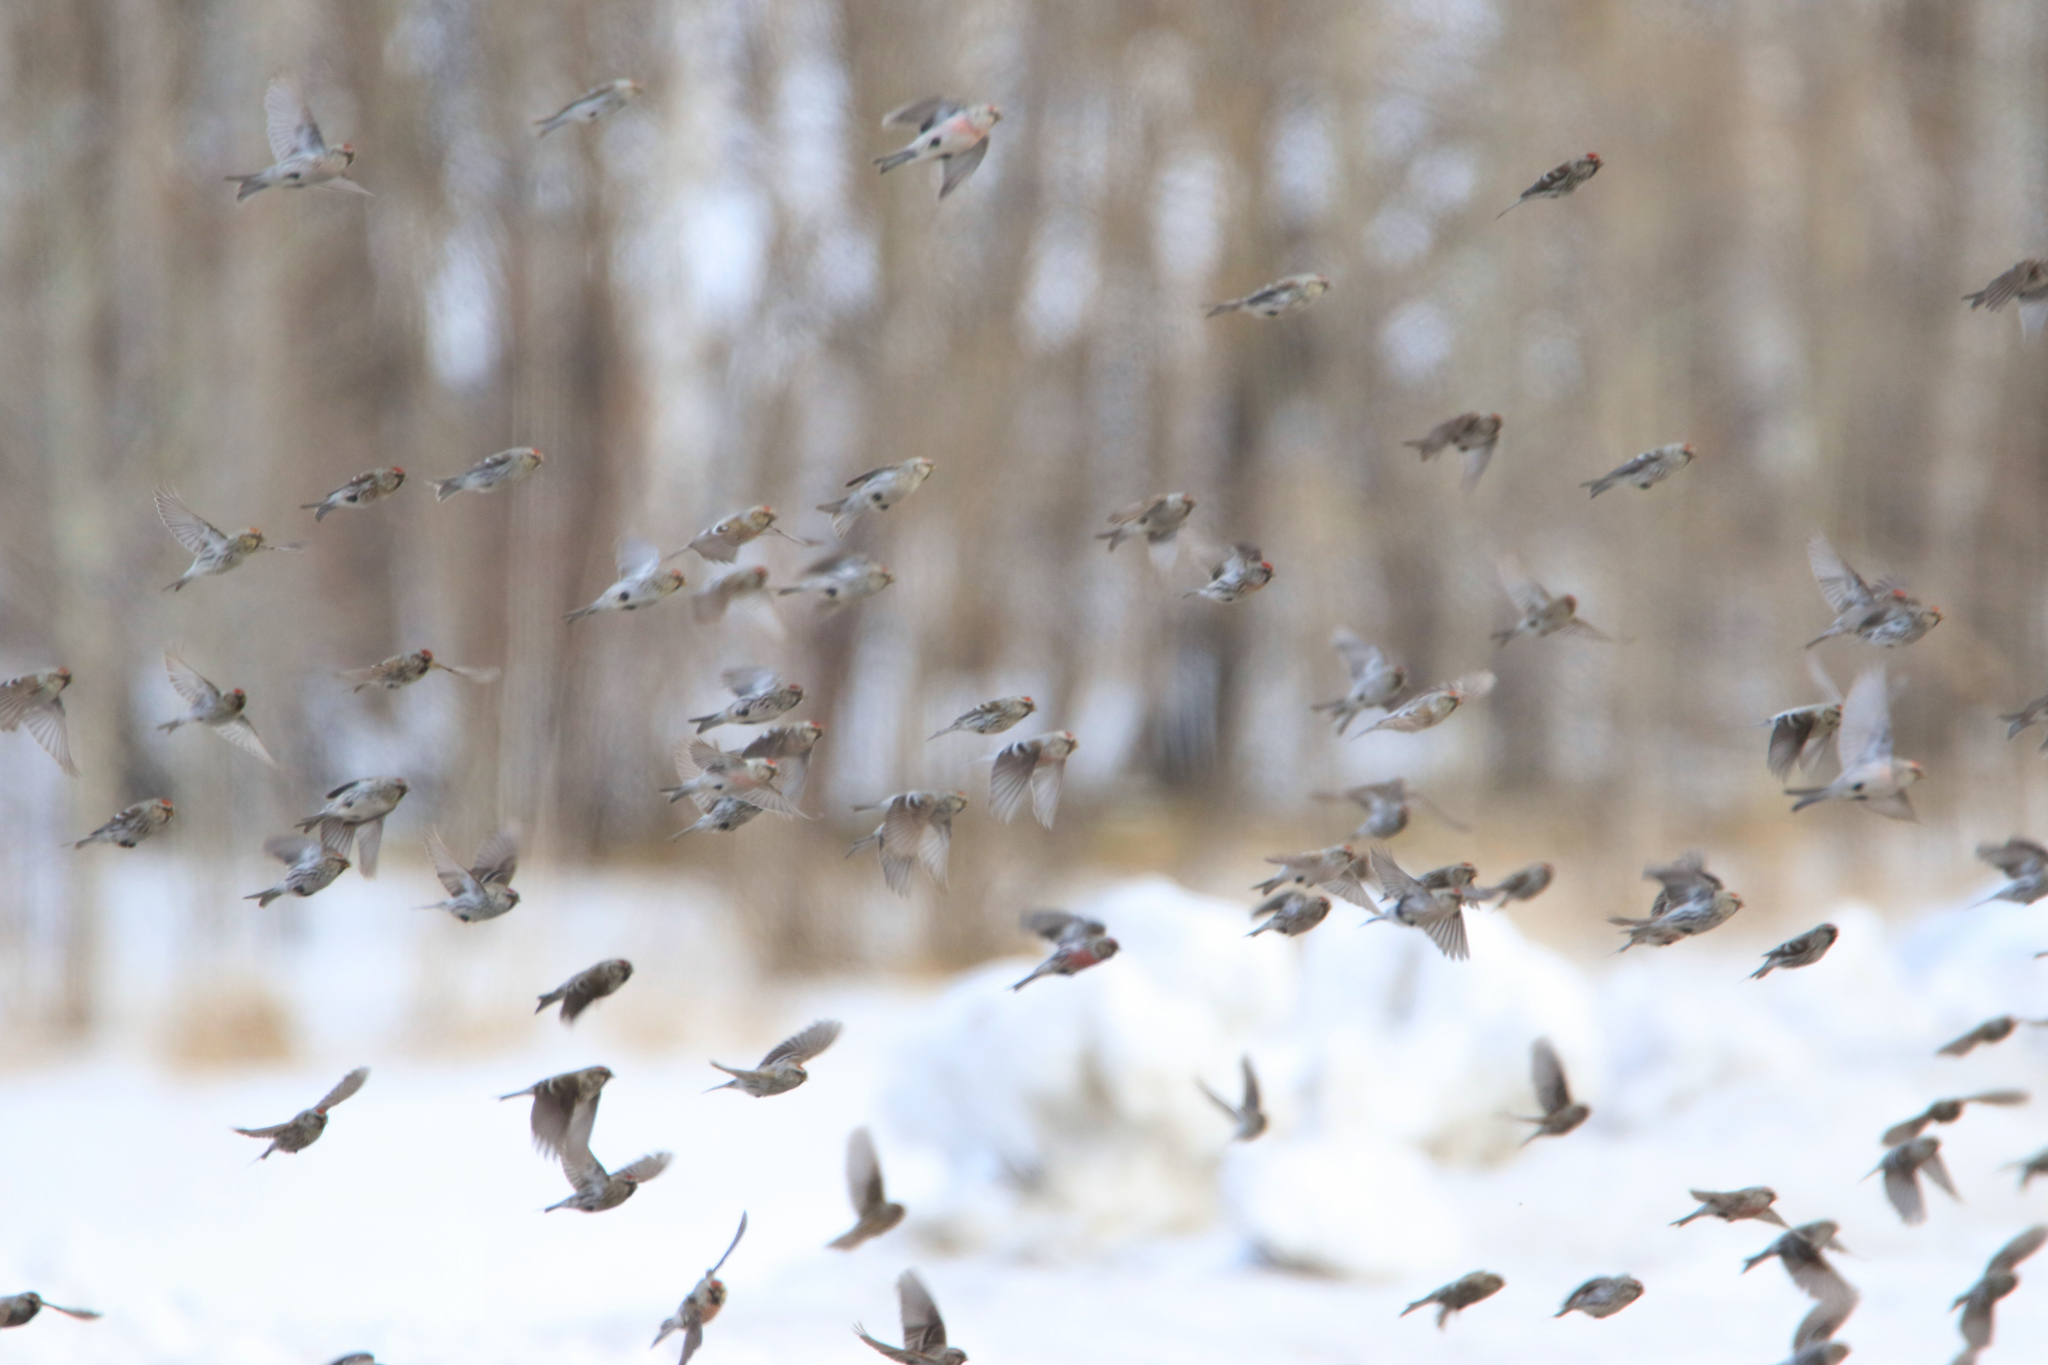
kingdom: Animalia
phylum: Chordata
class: Aves
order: Passeriformes
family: Fringillidae
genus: Acanthis
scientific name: Acanthis flammea
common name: Common redpoll
